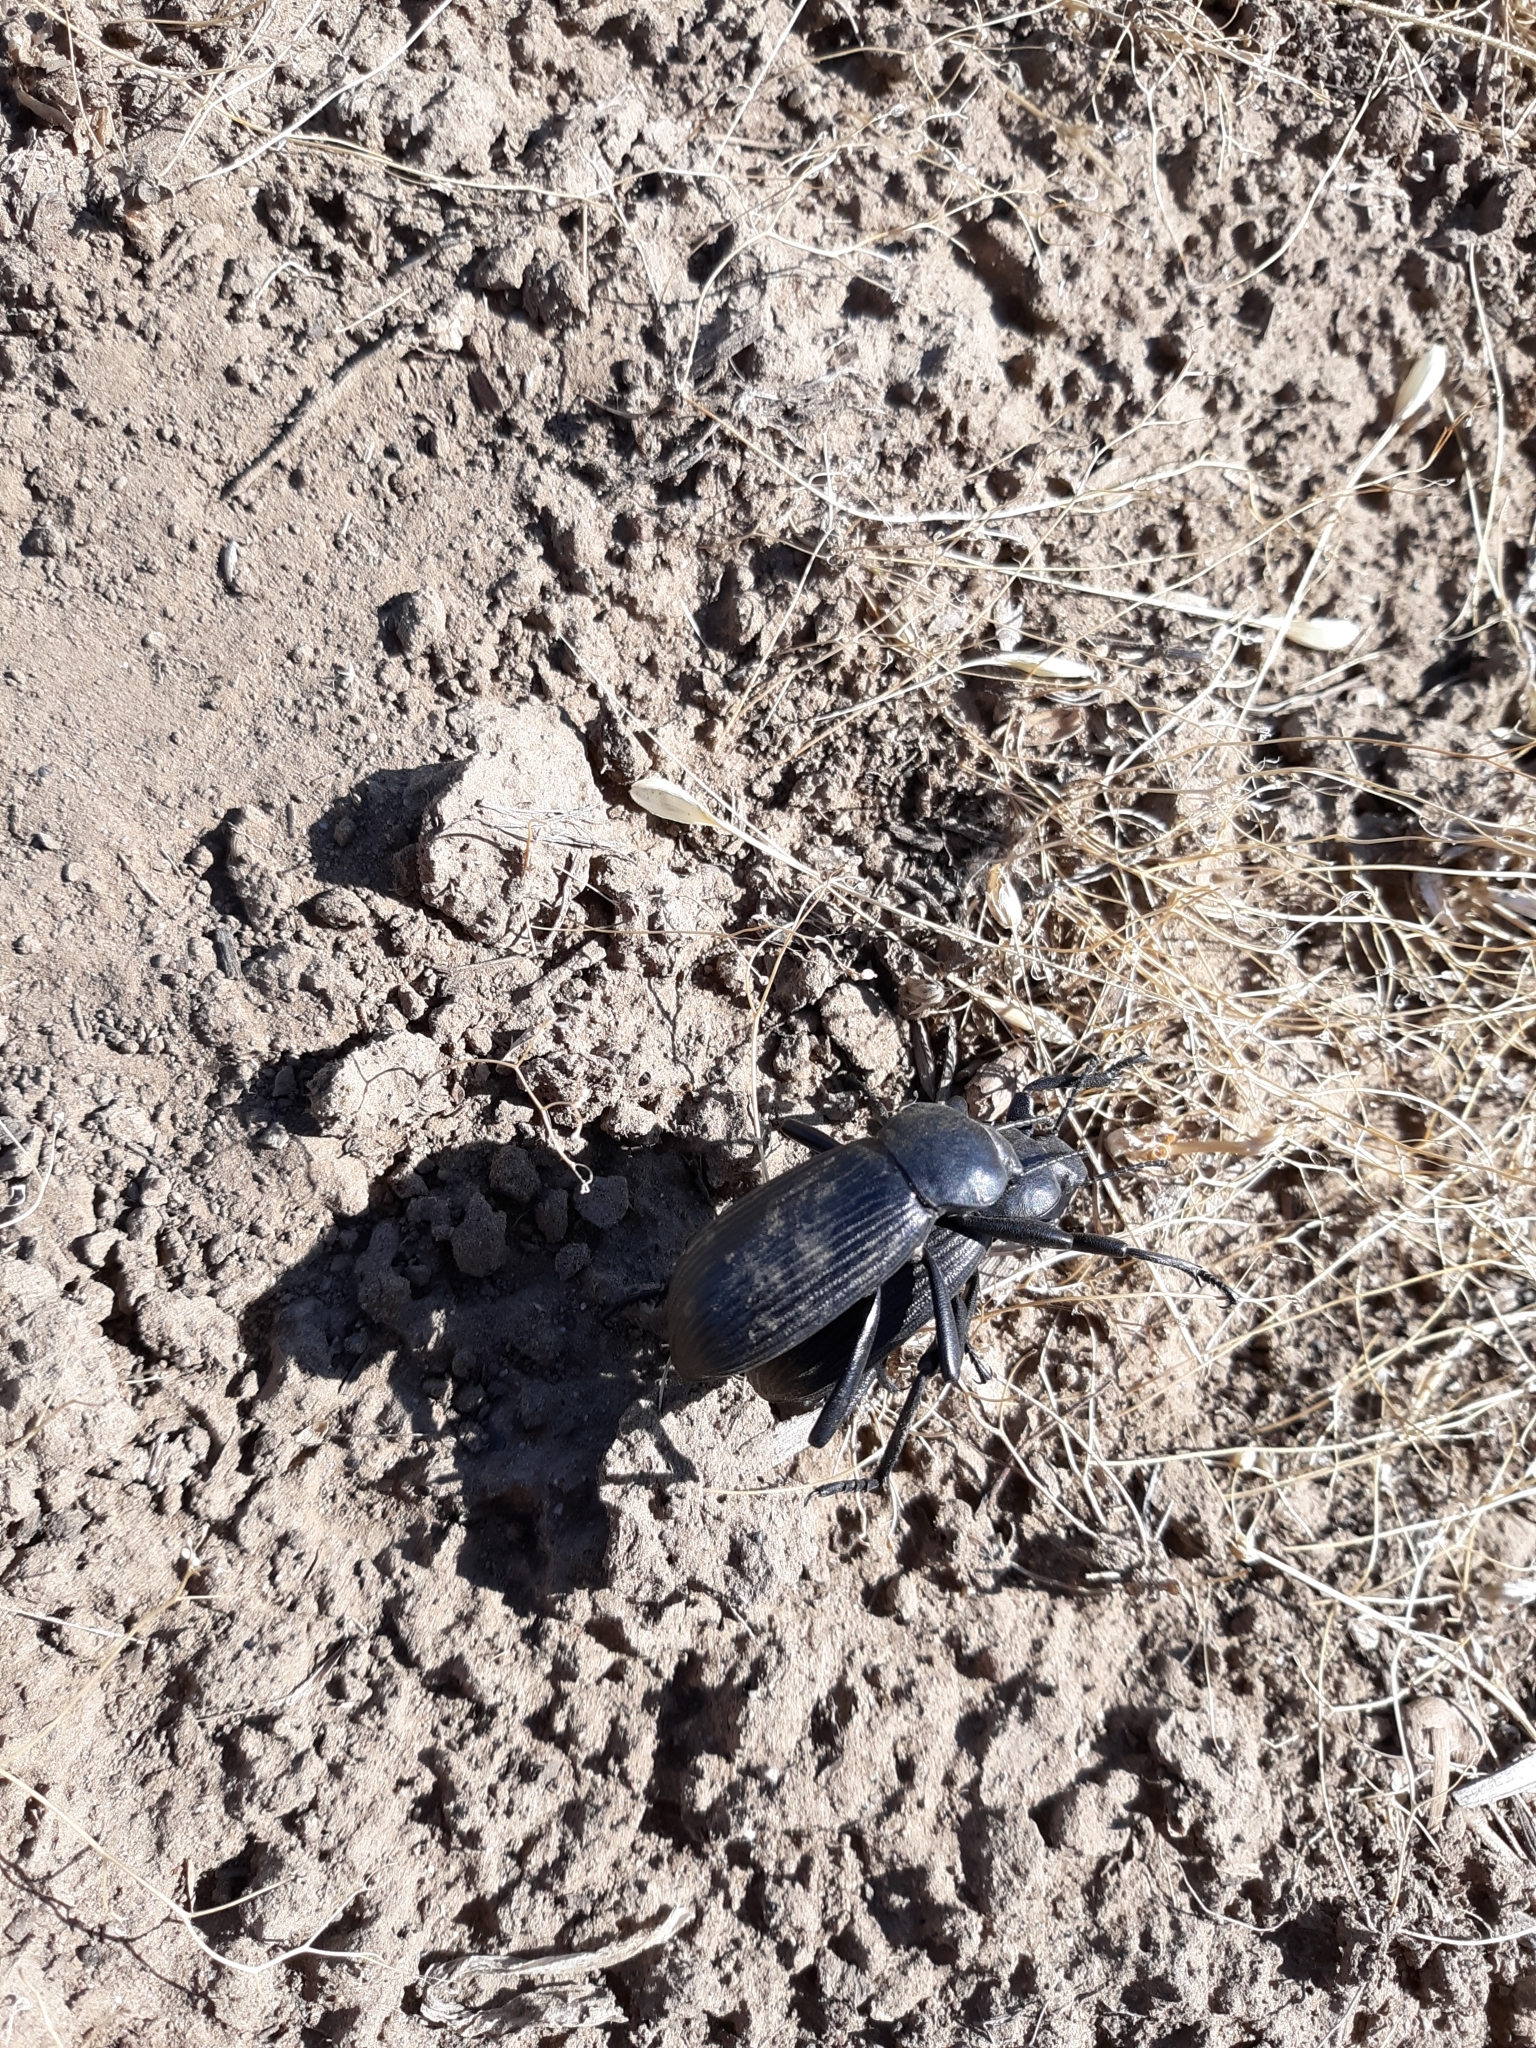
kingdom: Animalia
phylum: Arthropoda
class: Insecta
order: Coleoptera
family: Tenebrionidae
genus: Eleodes
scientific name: Eleodes obscura
